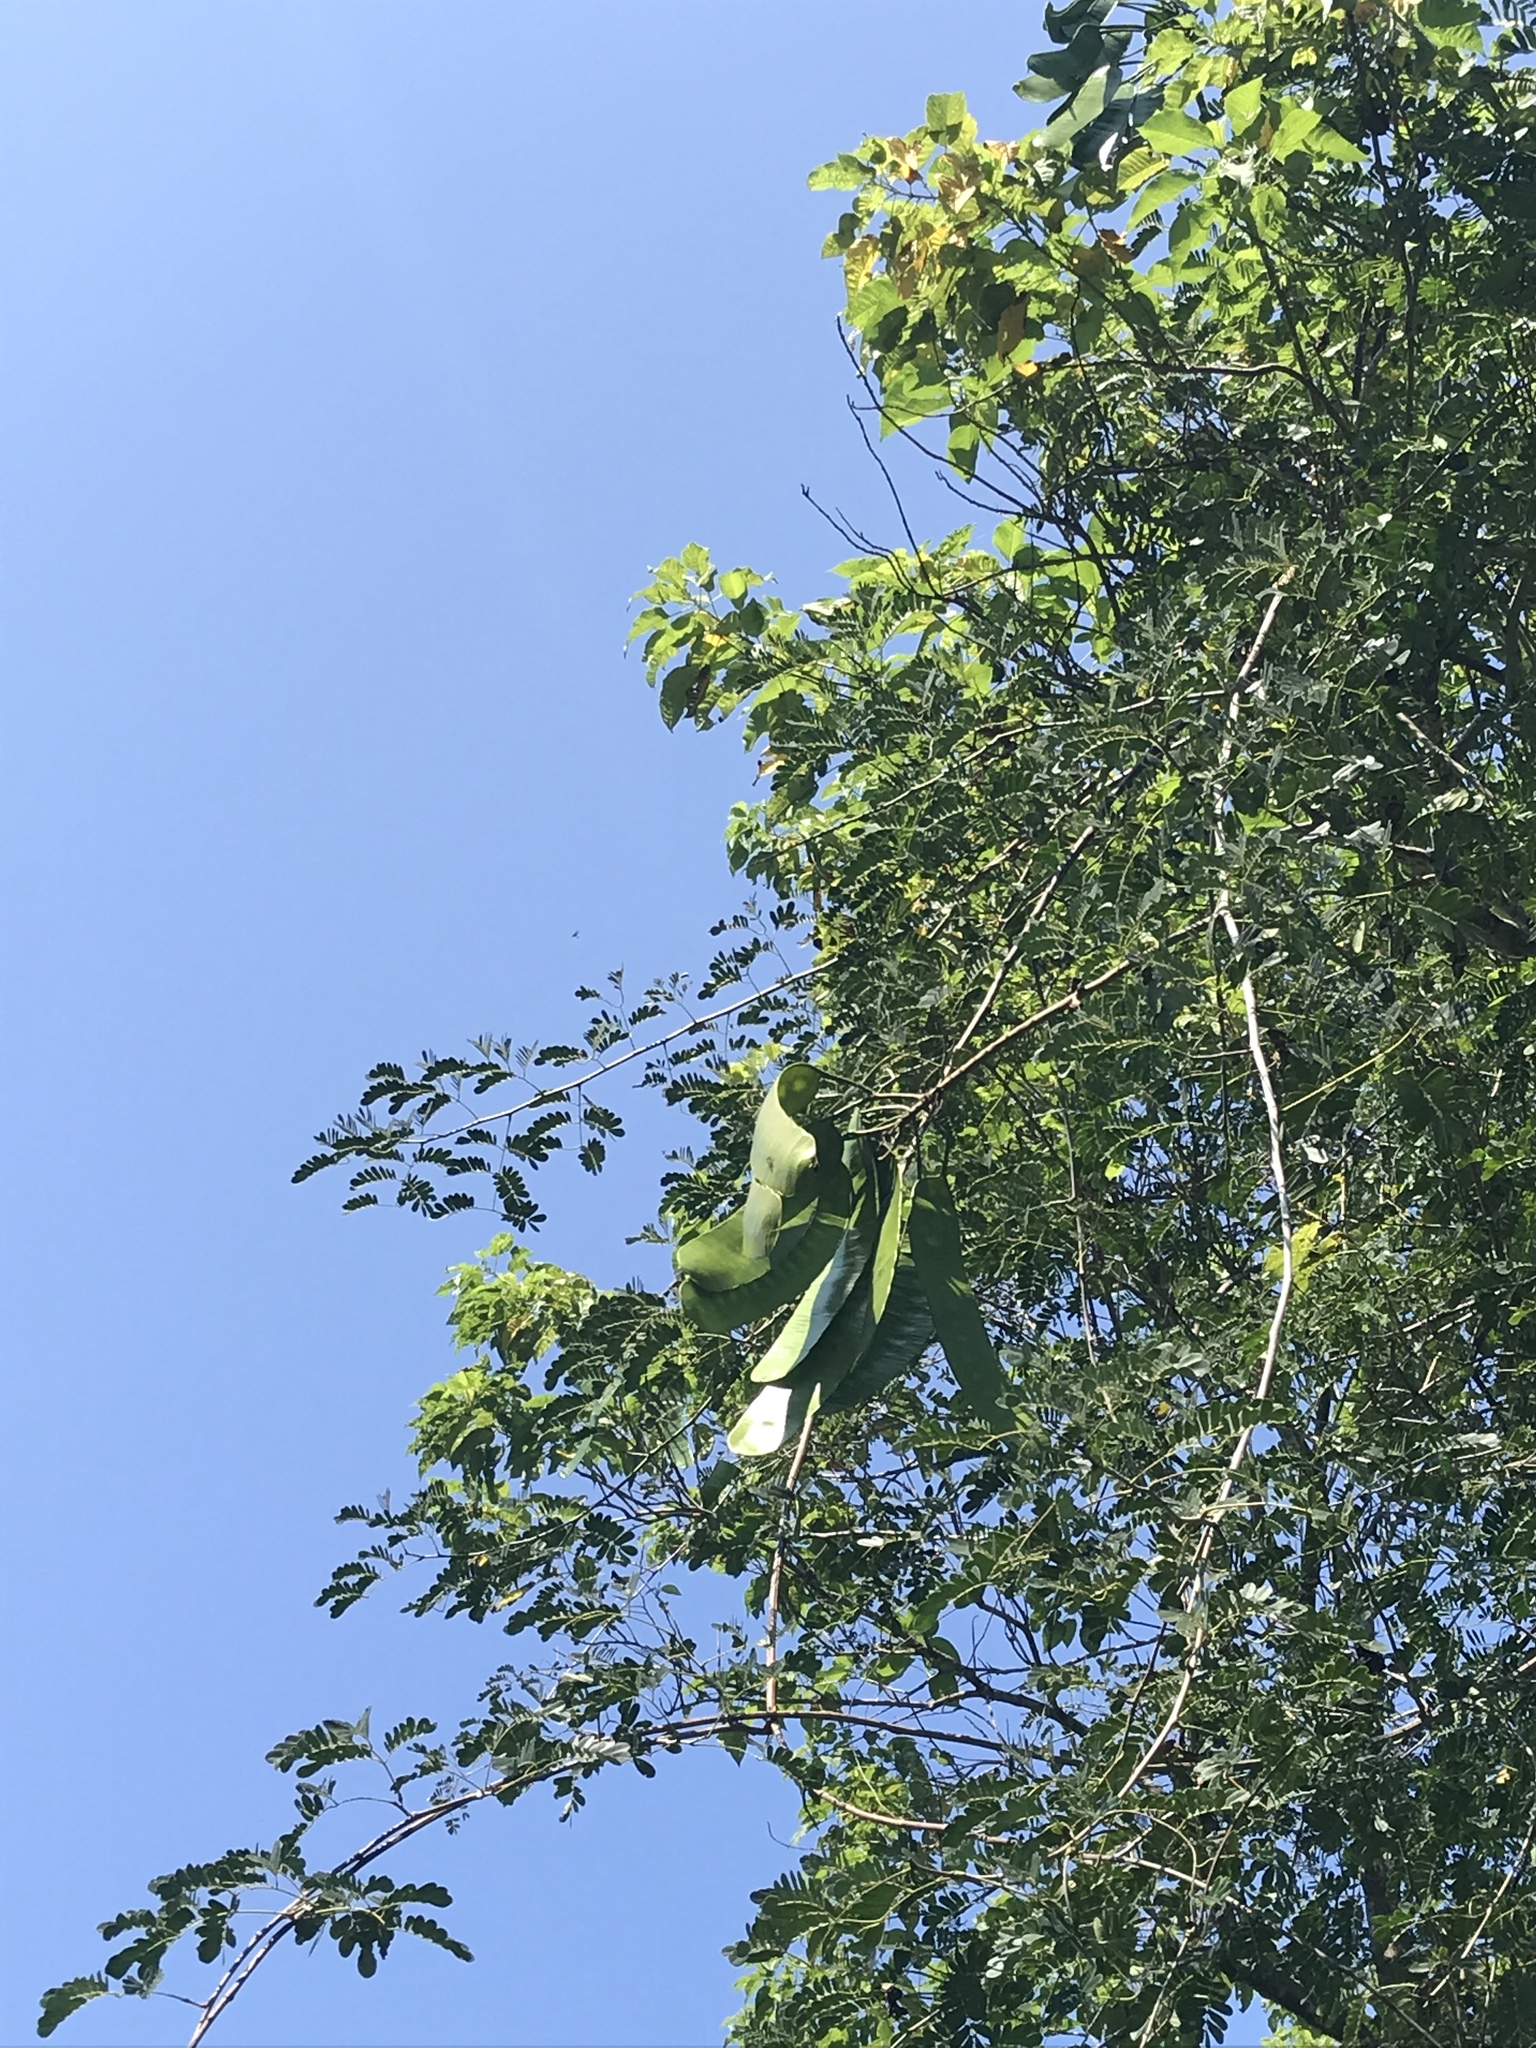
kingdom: Plantae
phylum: Tracheophyta
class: Magnoliopsida
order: Fabales
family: Fabaceae
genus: Entada
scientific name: Entada polystachya
